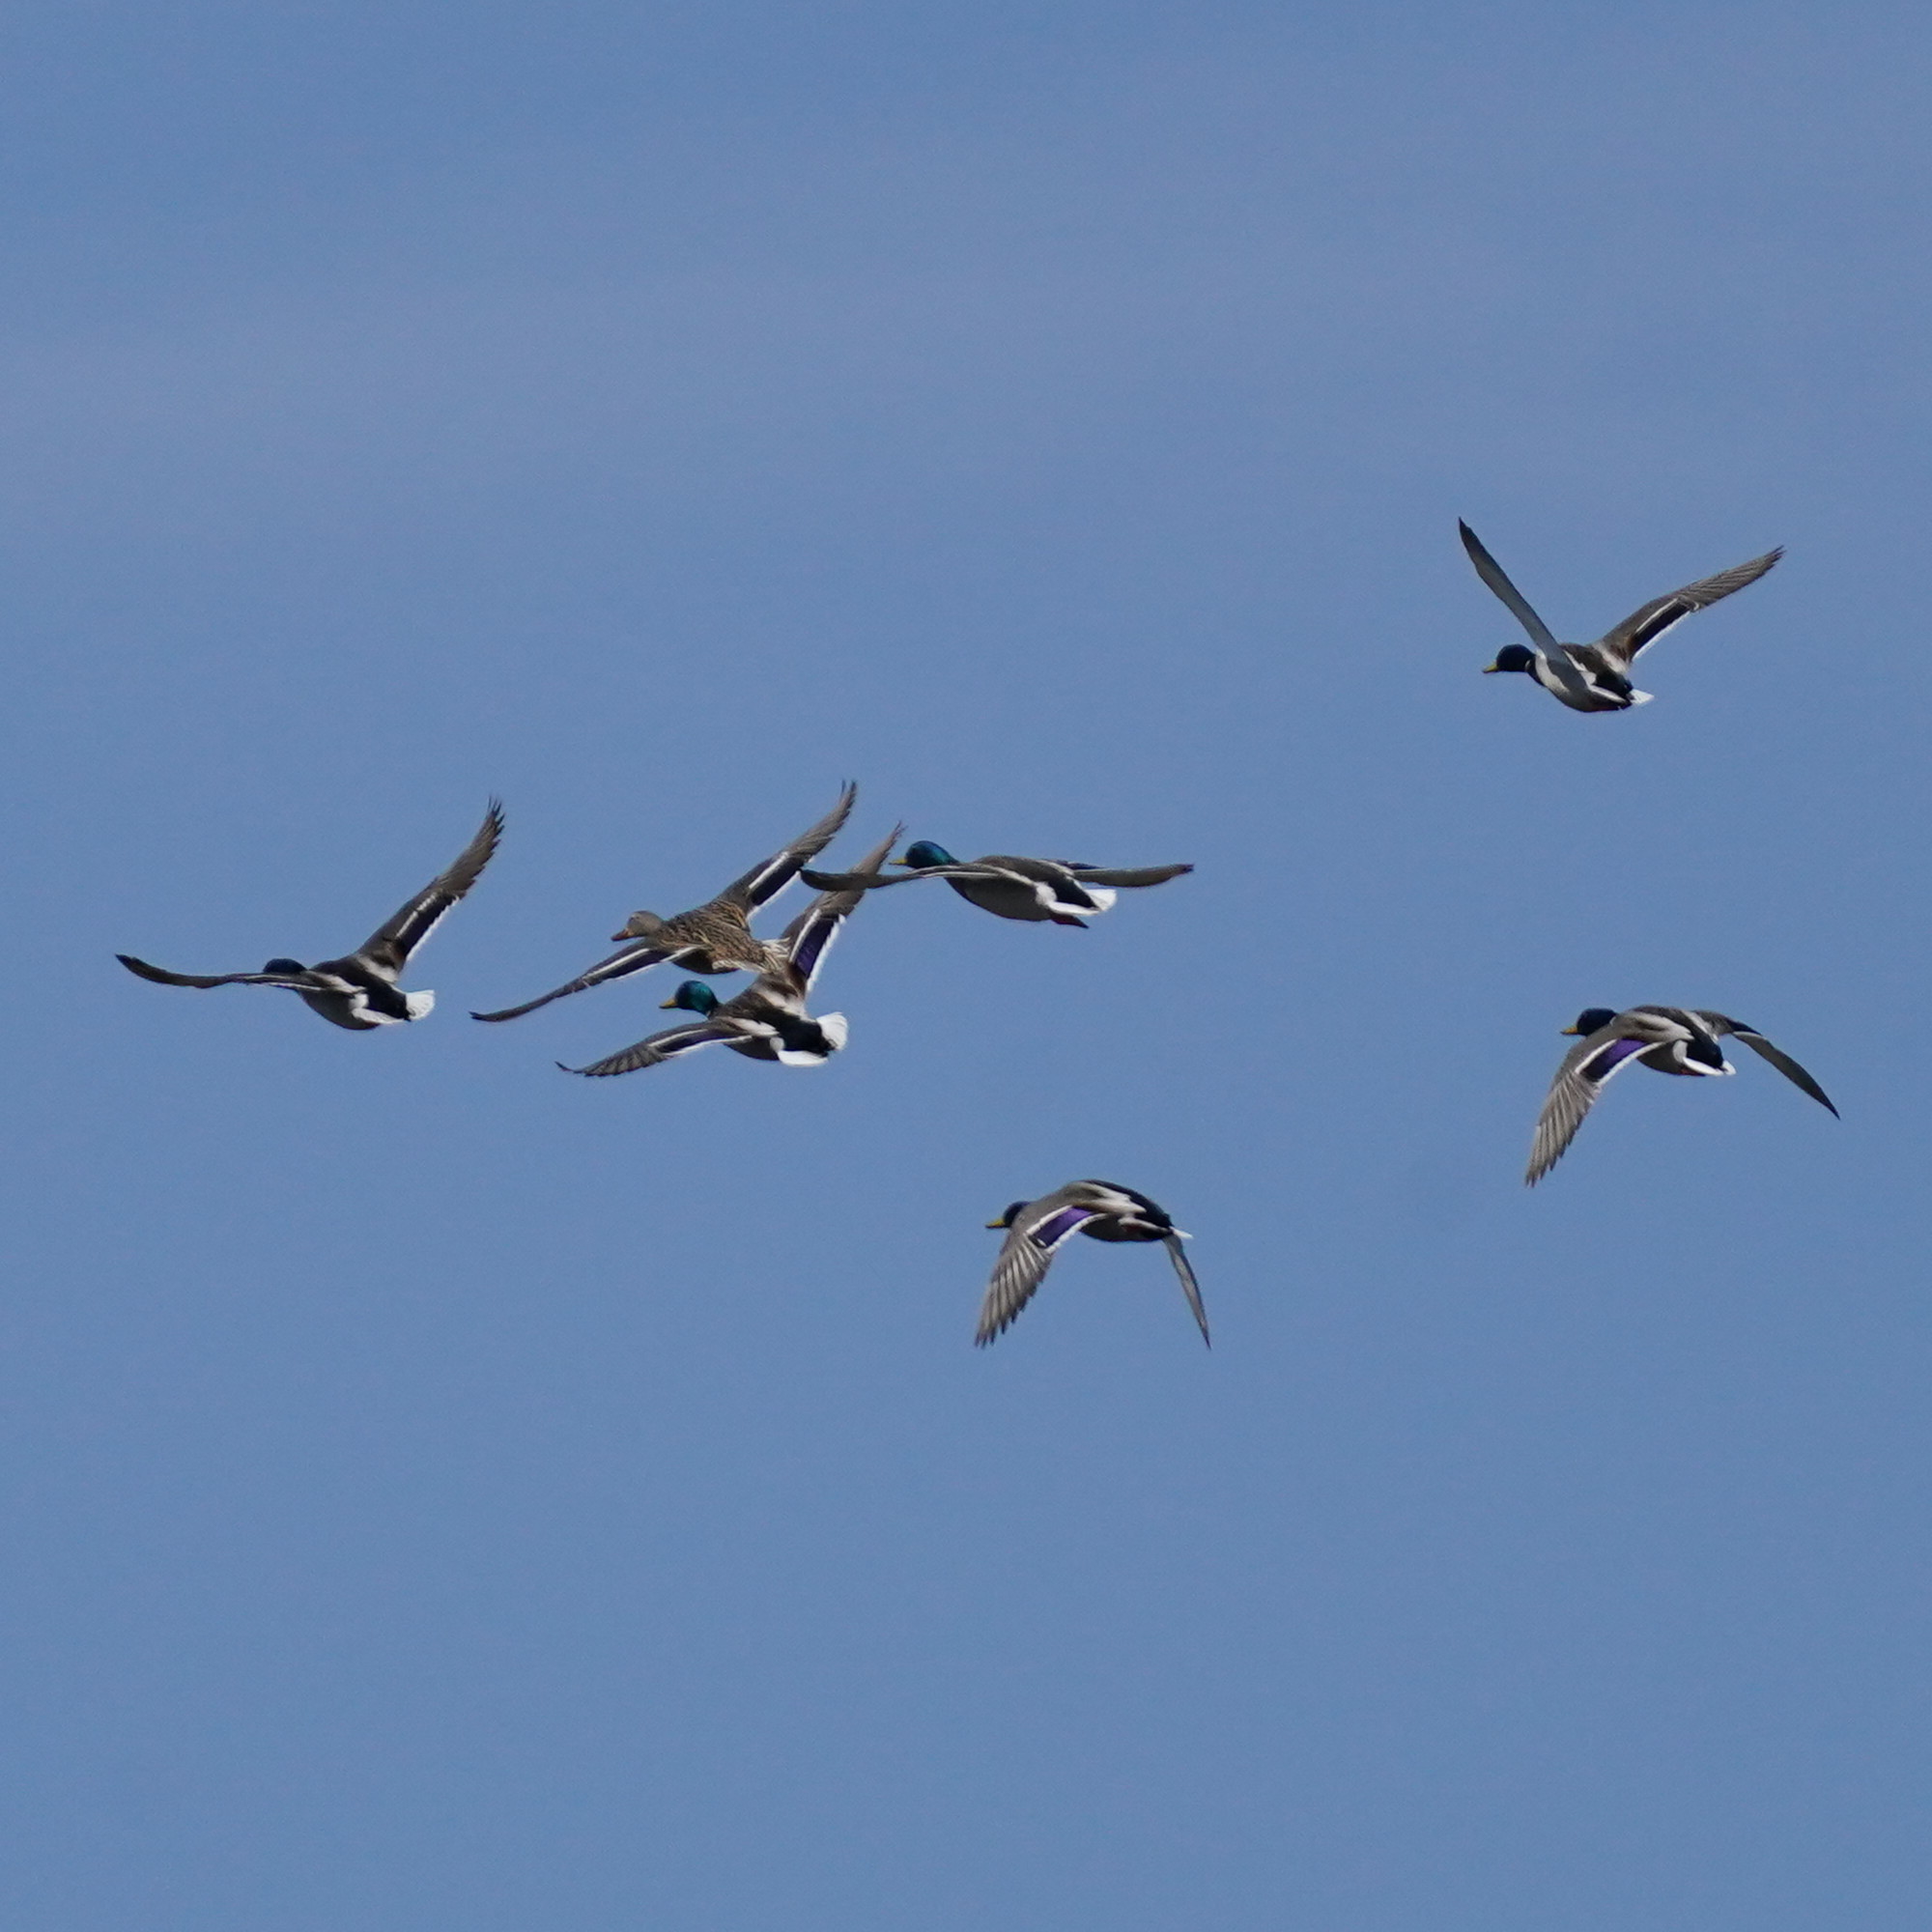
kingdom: Animalia
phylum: Chordata
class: Aves
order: Anseriformes
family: Anatidae
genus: Anas
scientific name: Anas platyrhynchos
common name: Mallard
